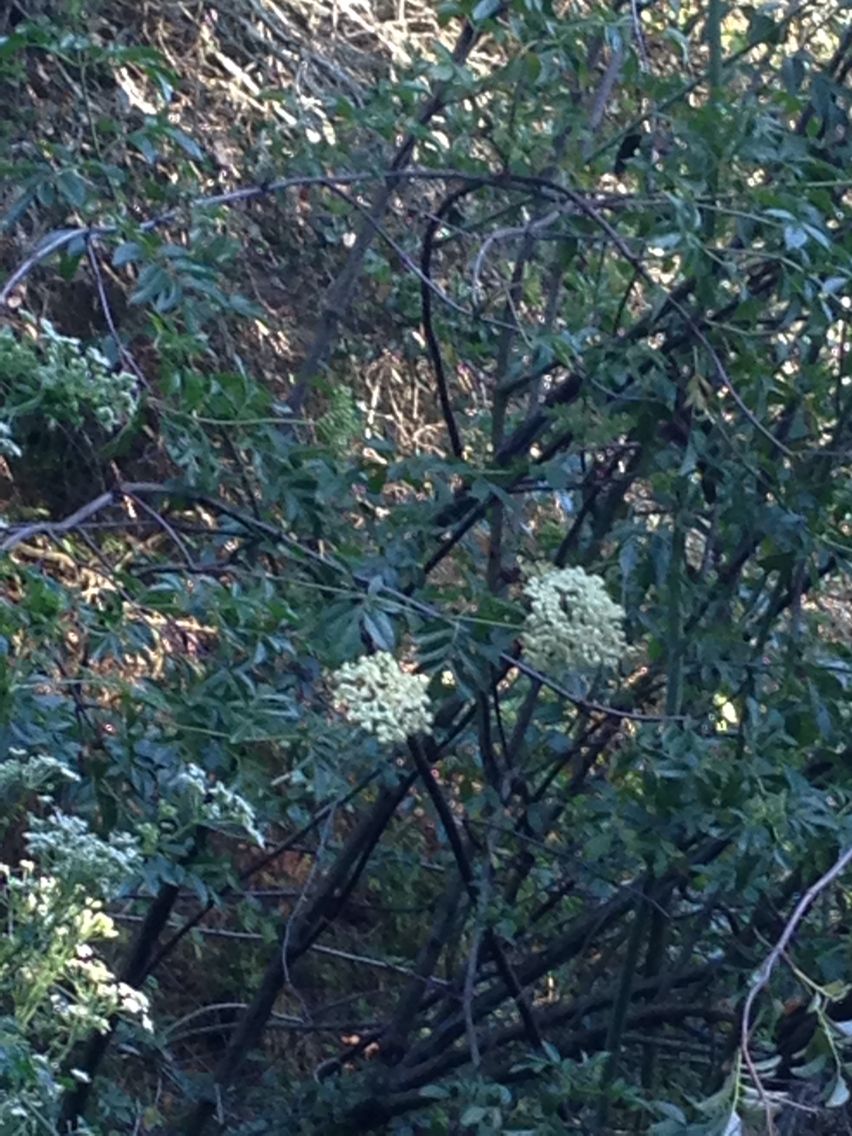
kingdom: Plantae
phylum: Tracheophyta
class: Magnoliopsida
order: Dipsacales
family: Viburnaceae
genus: Sambucus
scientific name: Sambucus cerulea
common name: Blue elder
